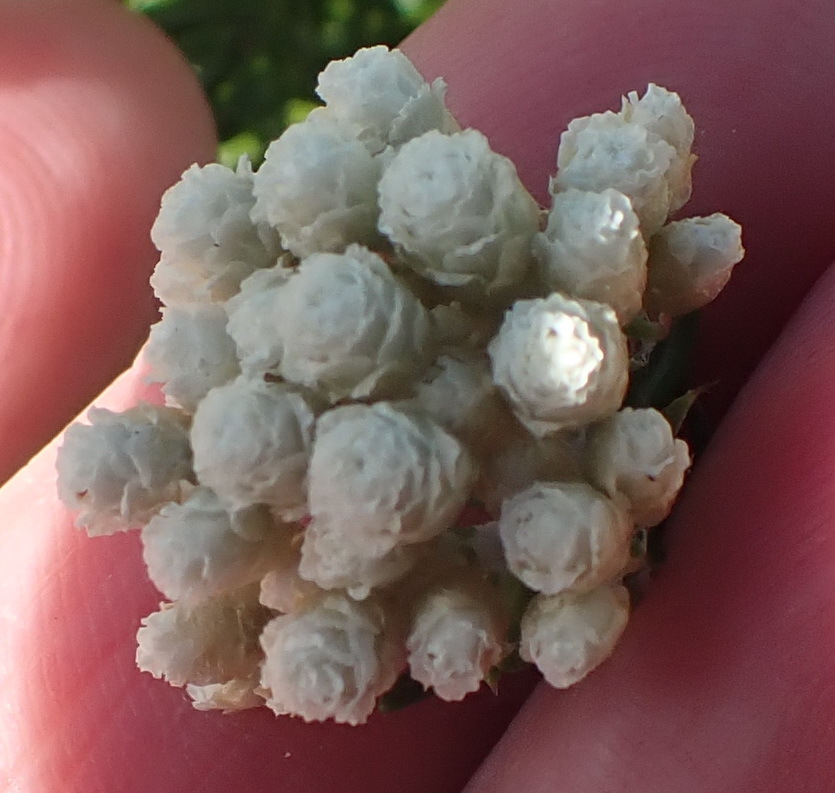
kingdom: Plantae
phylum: Tracheophyta
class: Magnoliopsida
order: Asterales
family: Asteraceae
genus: Helichrysum
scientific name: Helichrysum teretifolium
